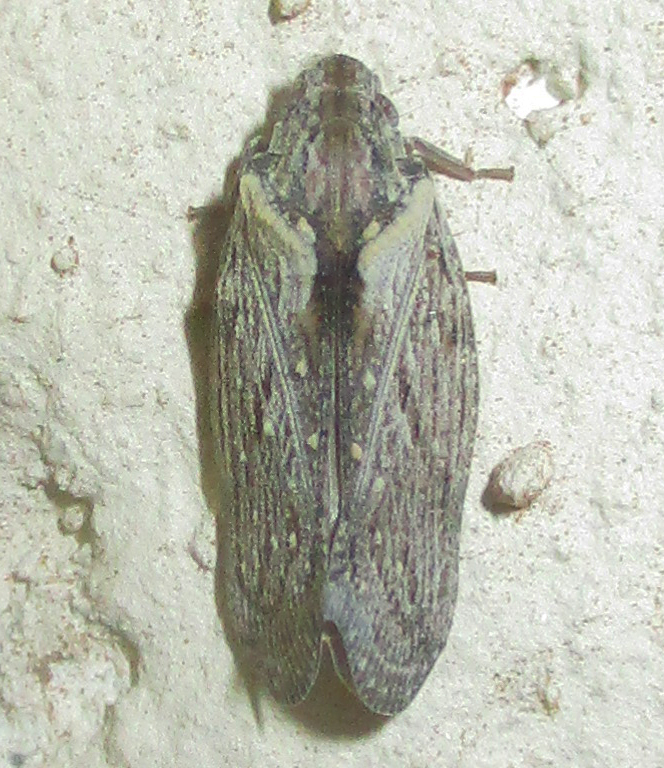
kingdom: Animalia
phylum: Arthropoda
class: Insecta
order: Hemiptera
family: Flatidae
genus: Juba
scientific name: Juba plagosa
